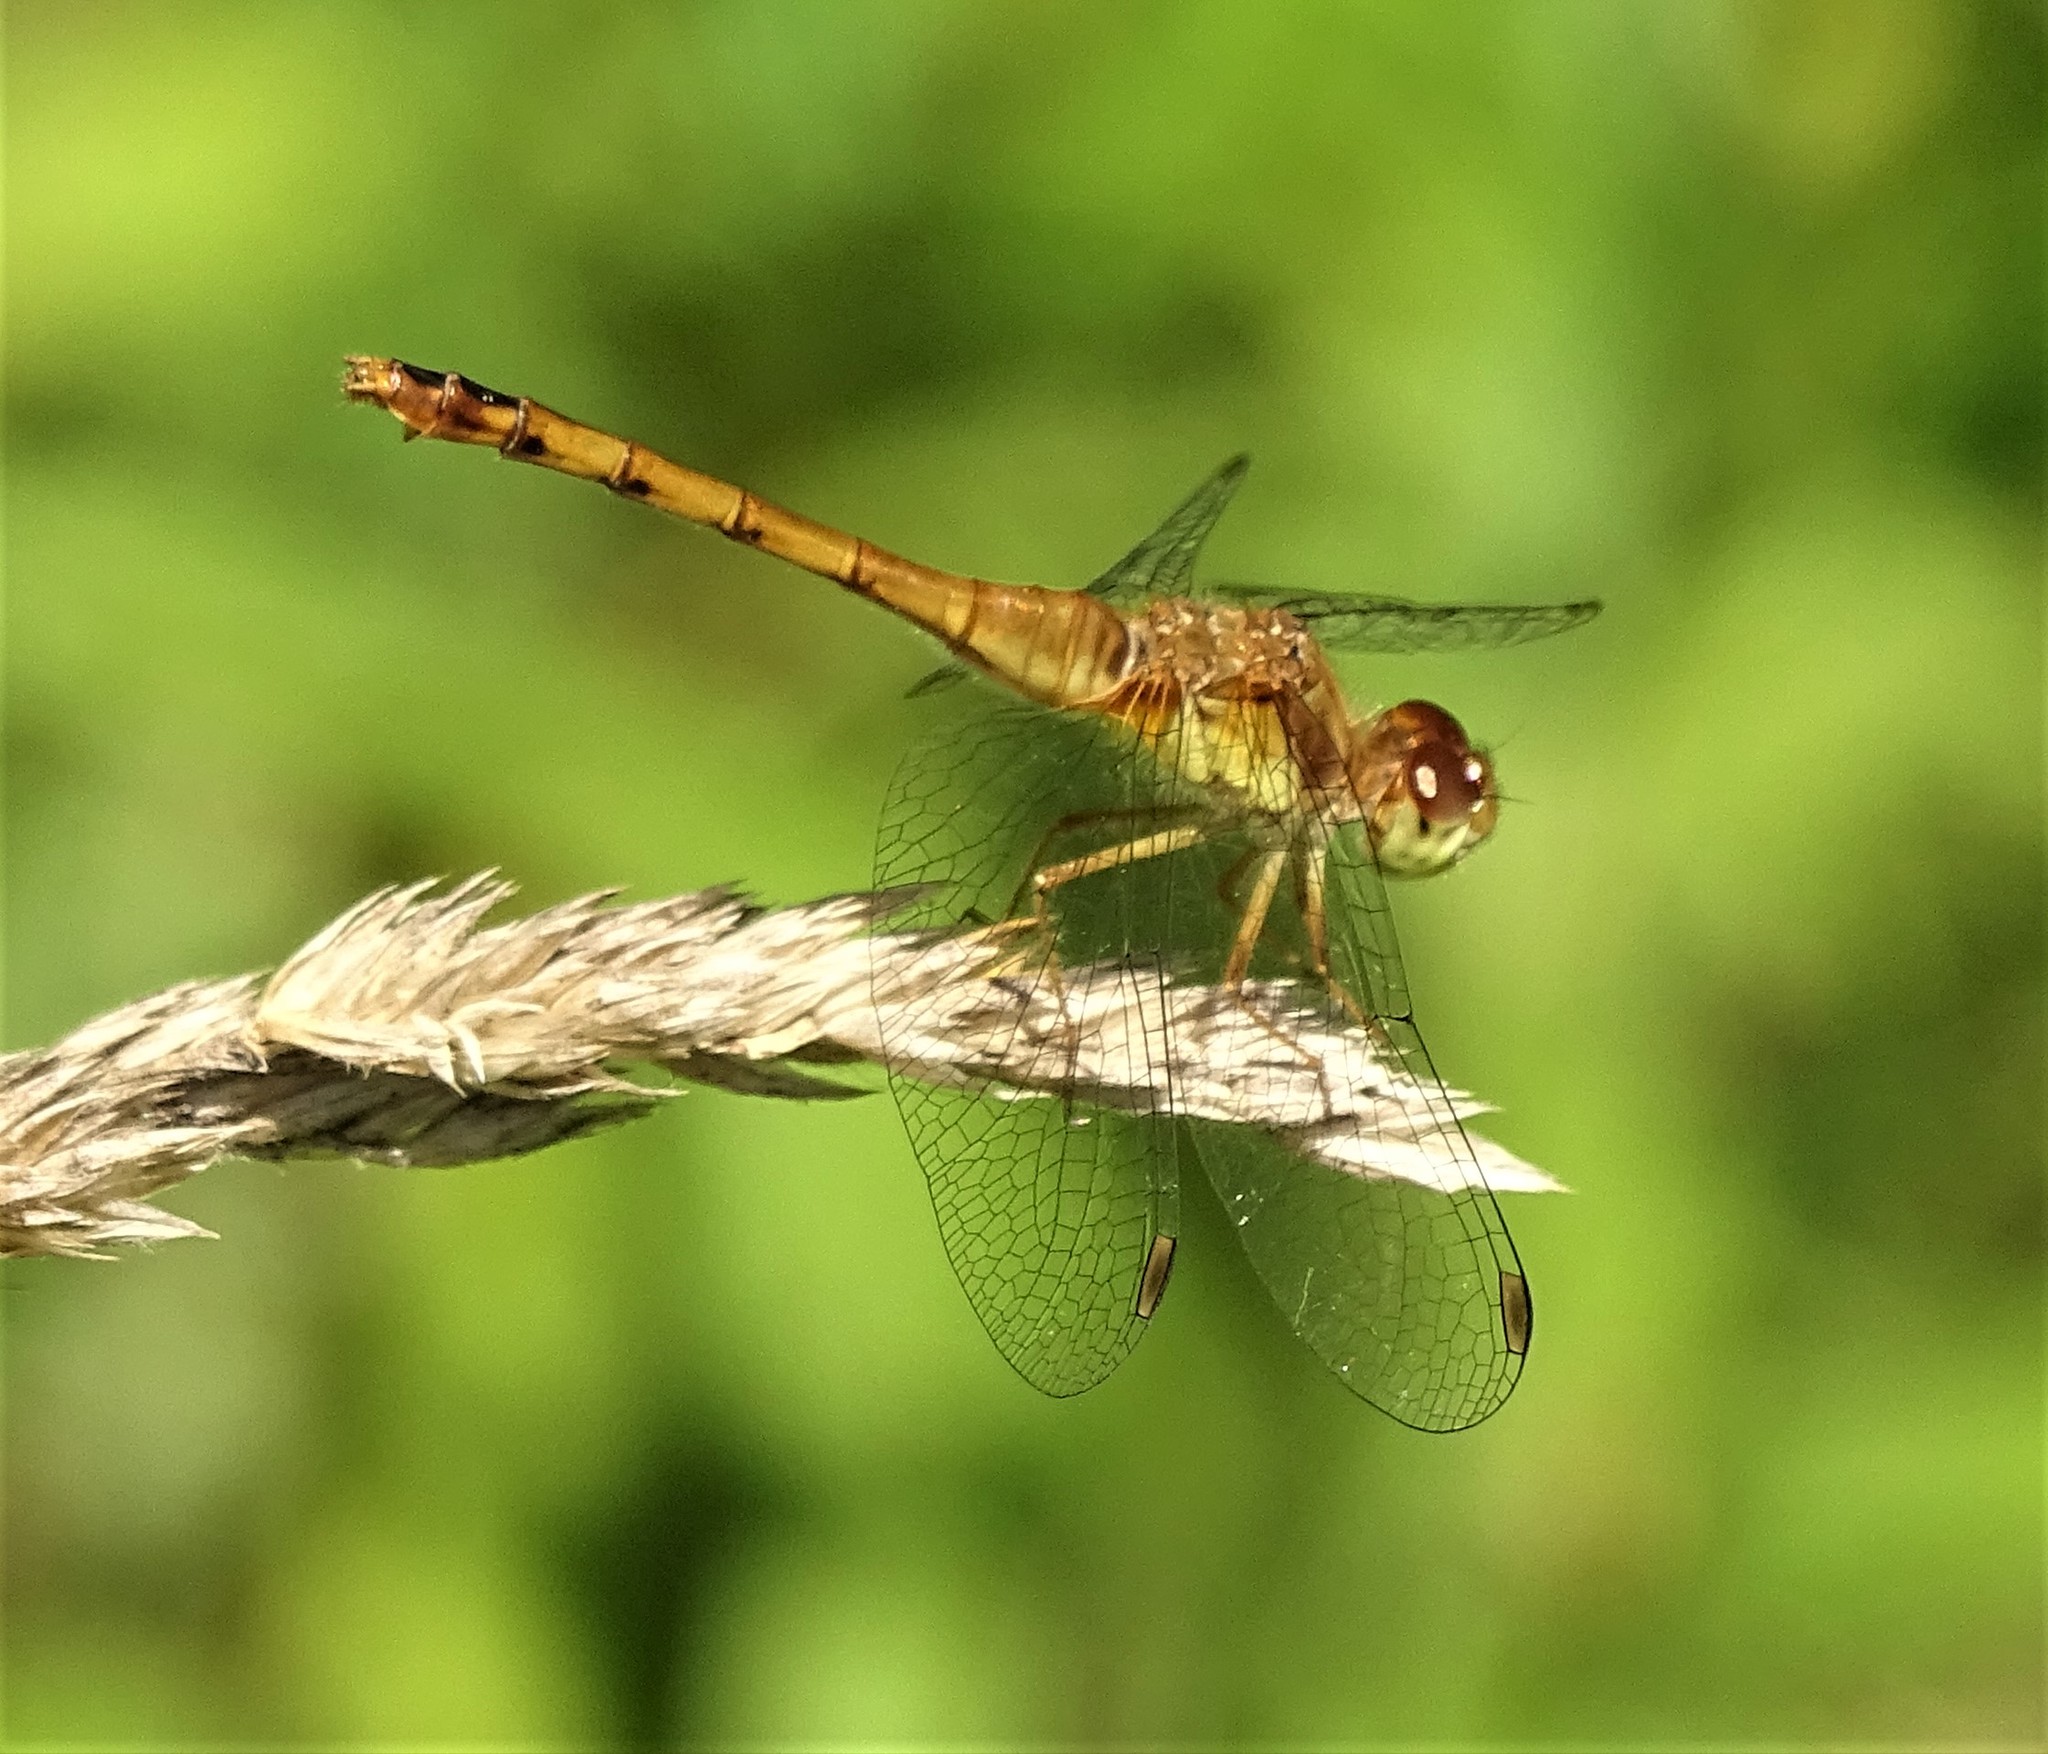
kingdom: Animalia
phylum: Arthropoda
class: Insecta
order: Odonata
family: Libellulidae
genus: Sympetrum
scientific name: Sympetrum vicinum
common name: Autumn meadowhawk
